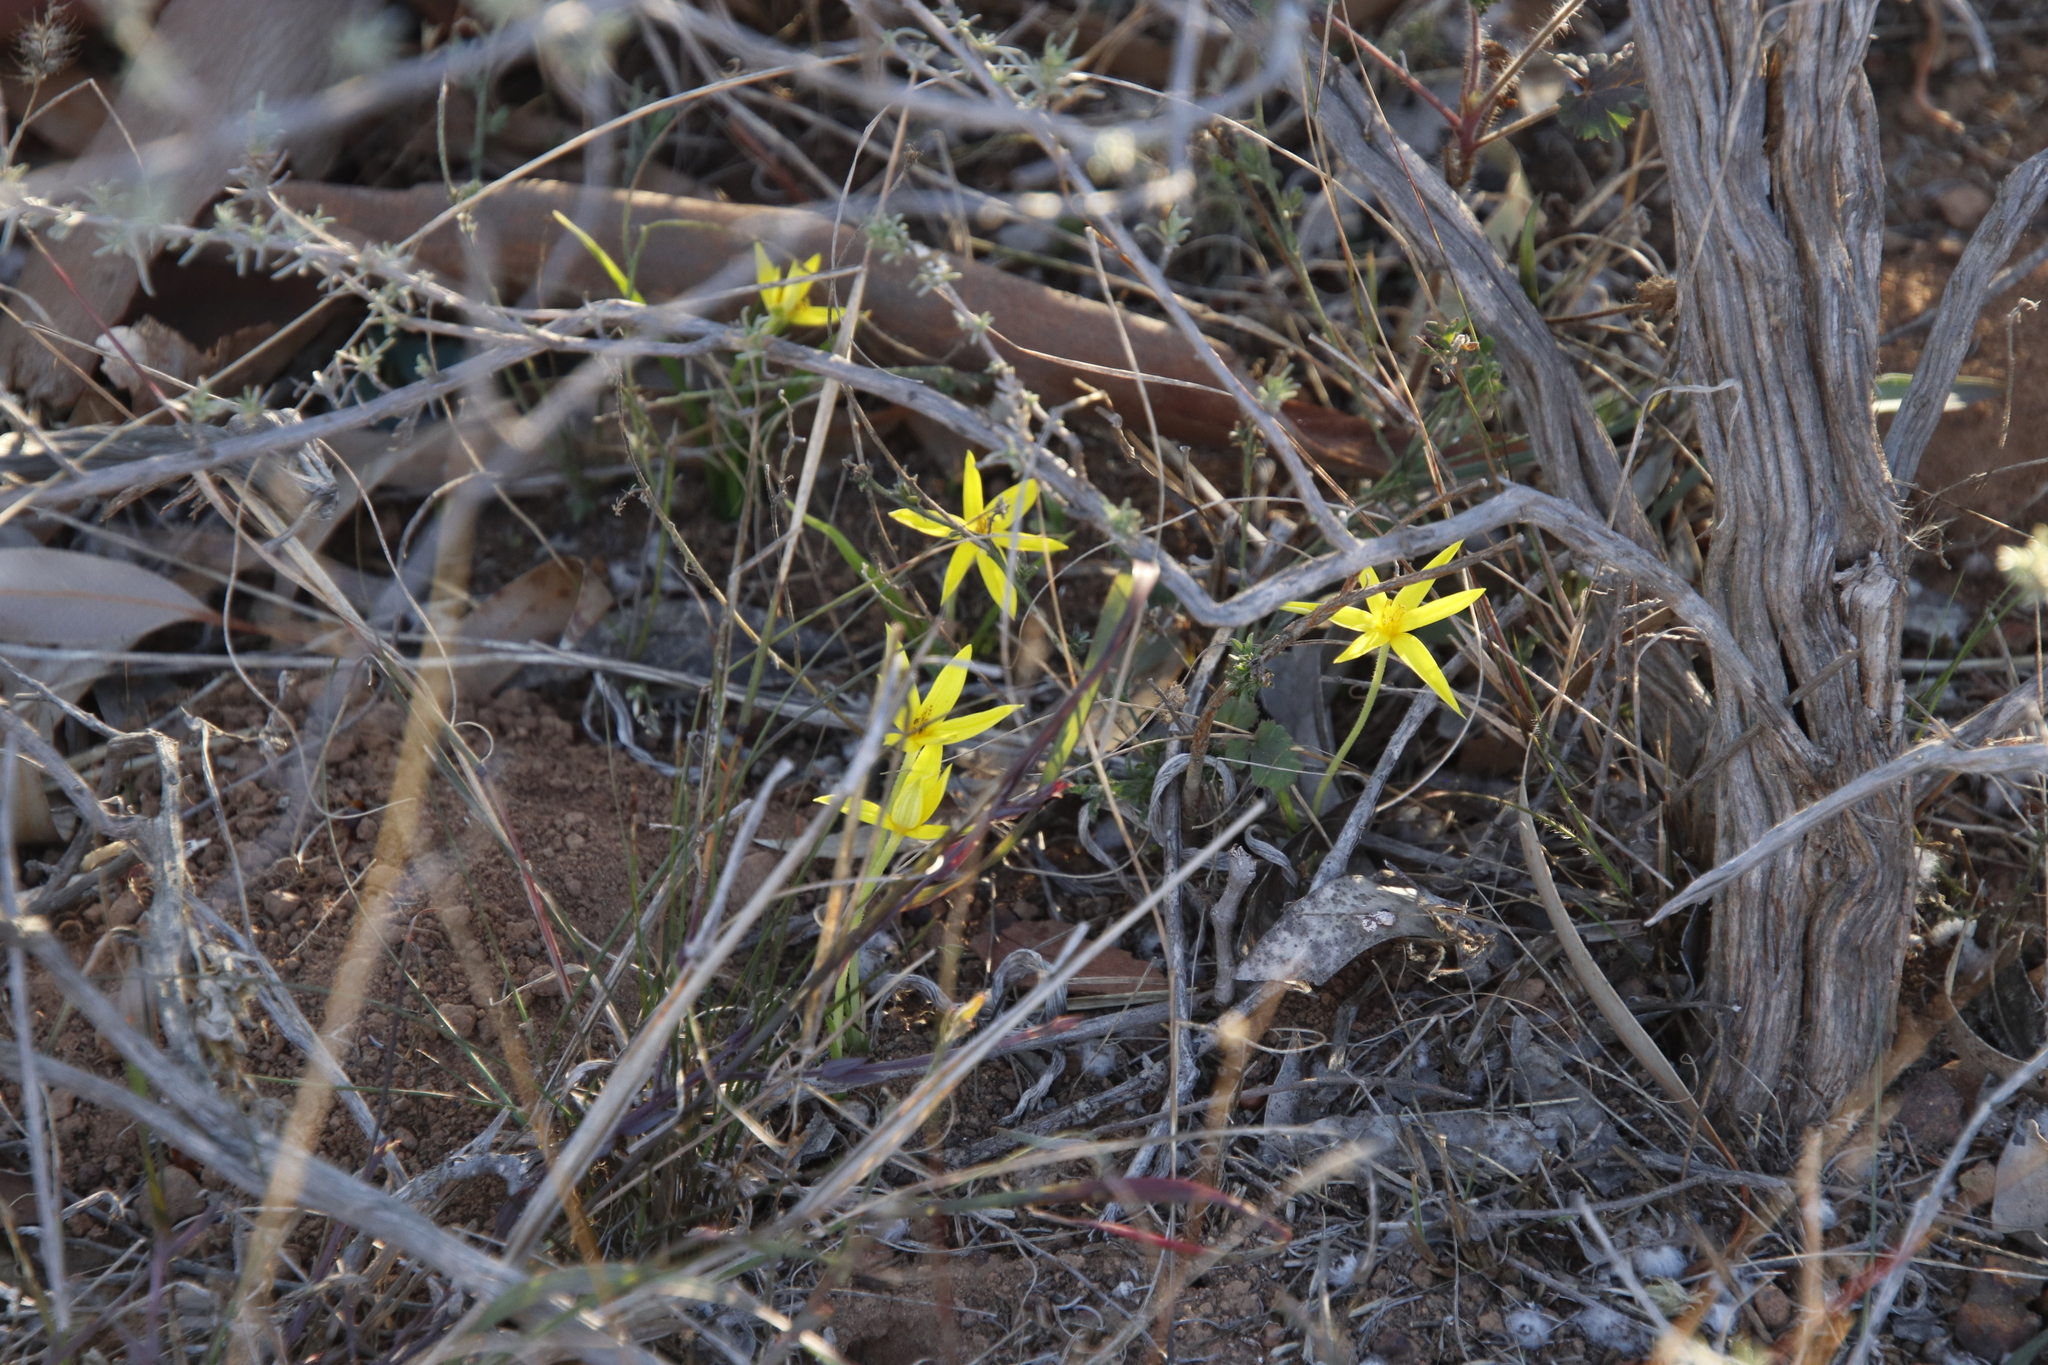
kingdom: Plantae
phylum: Tracheophyta
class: Liliopsida
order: Asparagales
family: Hypoxidaceae
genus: Empodium
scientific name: Empodium plicatum
